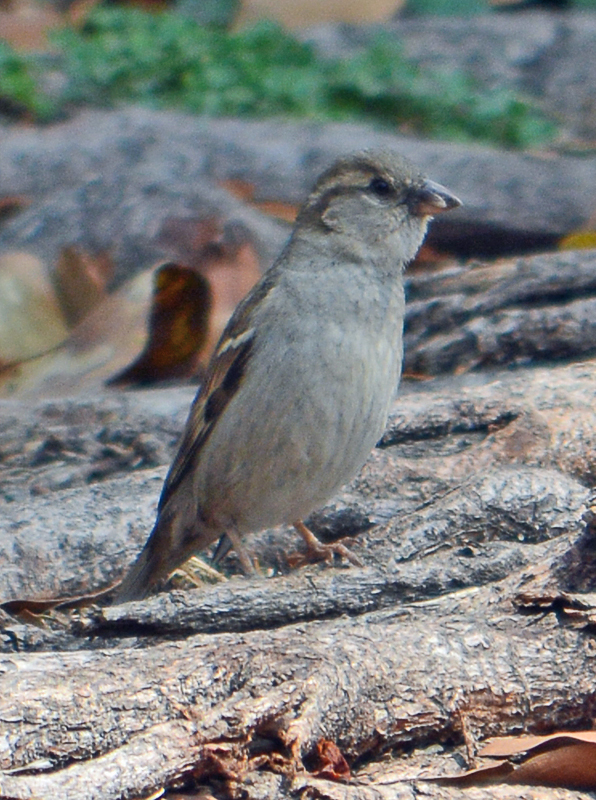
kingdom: Animalia
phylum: Chordata
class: Aves
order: Passeriformes
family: Passeridae
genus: Passer
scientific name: Passer domesticus
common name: House sparrow
